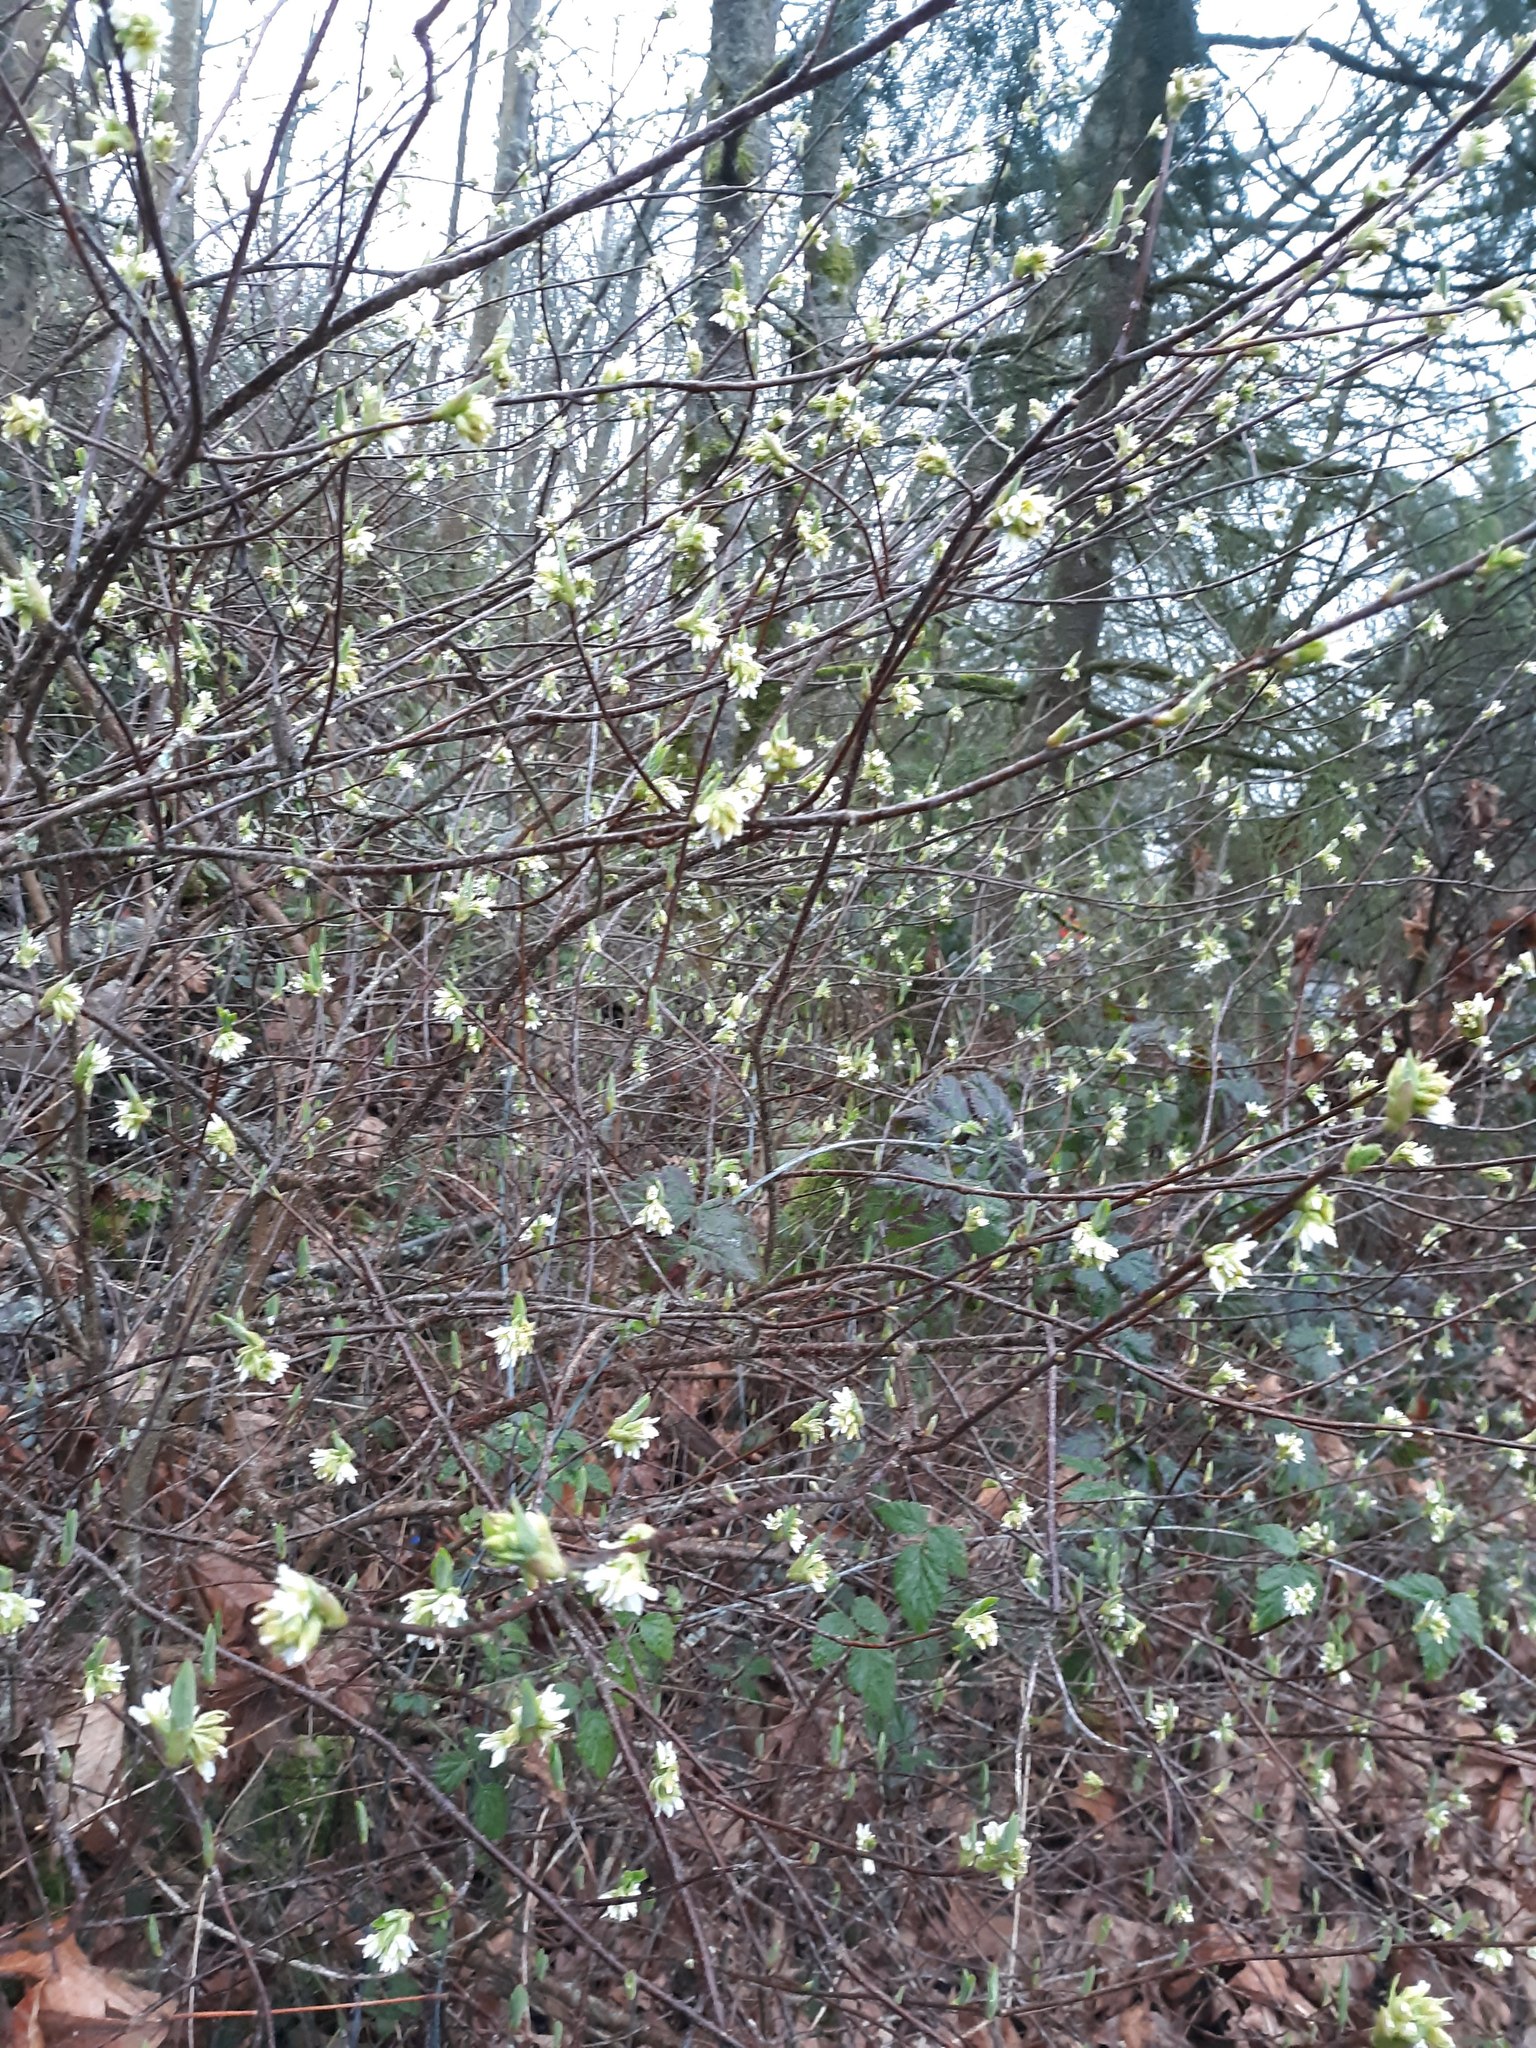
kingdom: Plantae
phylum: Tracheophyta
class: Magnoliopsida
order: Rosales
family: Rosaceae
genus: Oemleria
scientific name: Oemleria cerasiformis
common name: Osoberry
